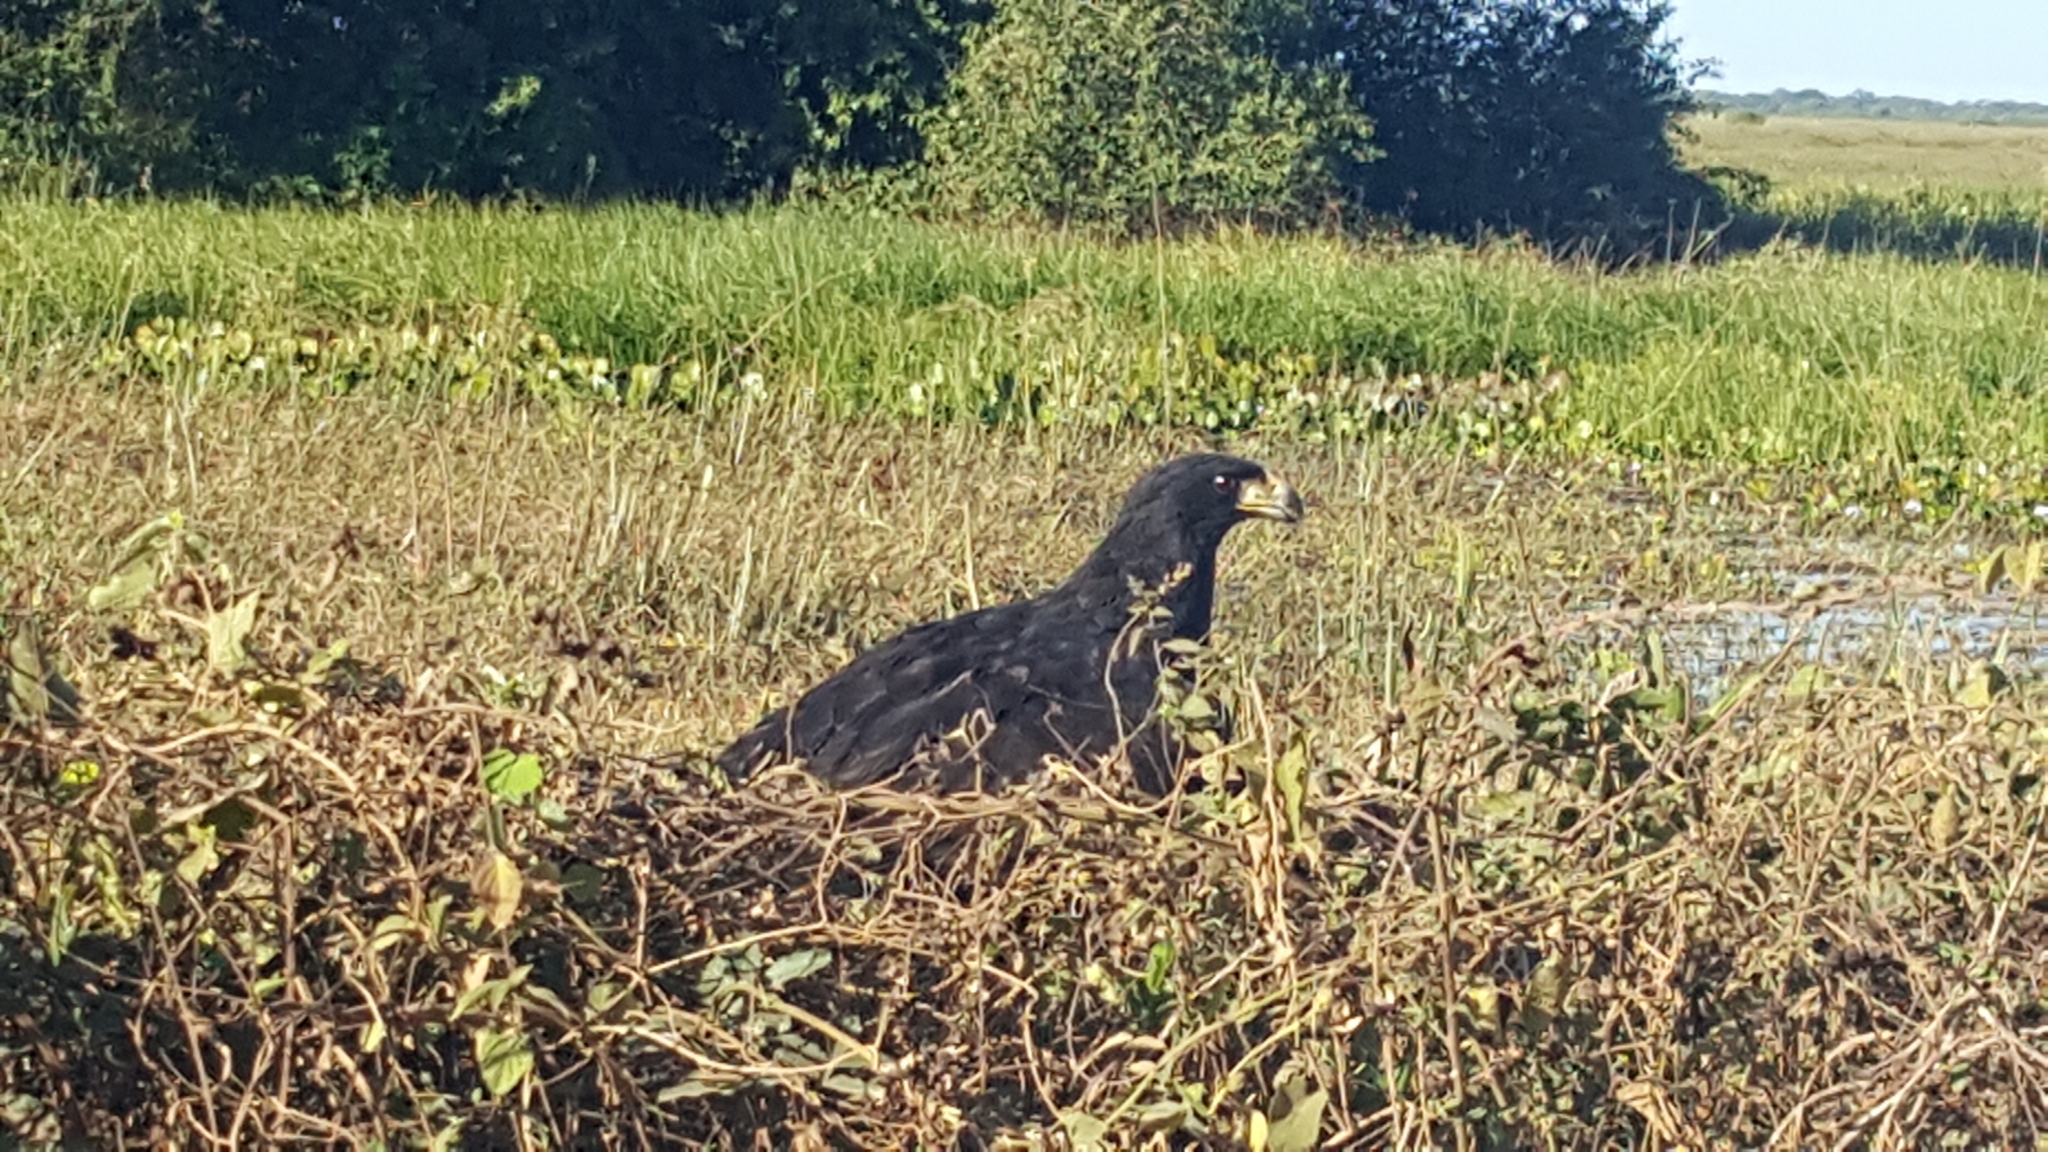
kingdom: Animalia
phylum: Chordata
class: Aves
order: Accipitriformes
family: Accipitridae
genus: Buteogallus
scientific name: Buteogallus urubitinga
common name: Great black hawk
